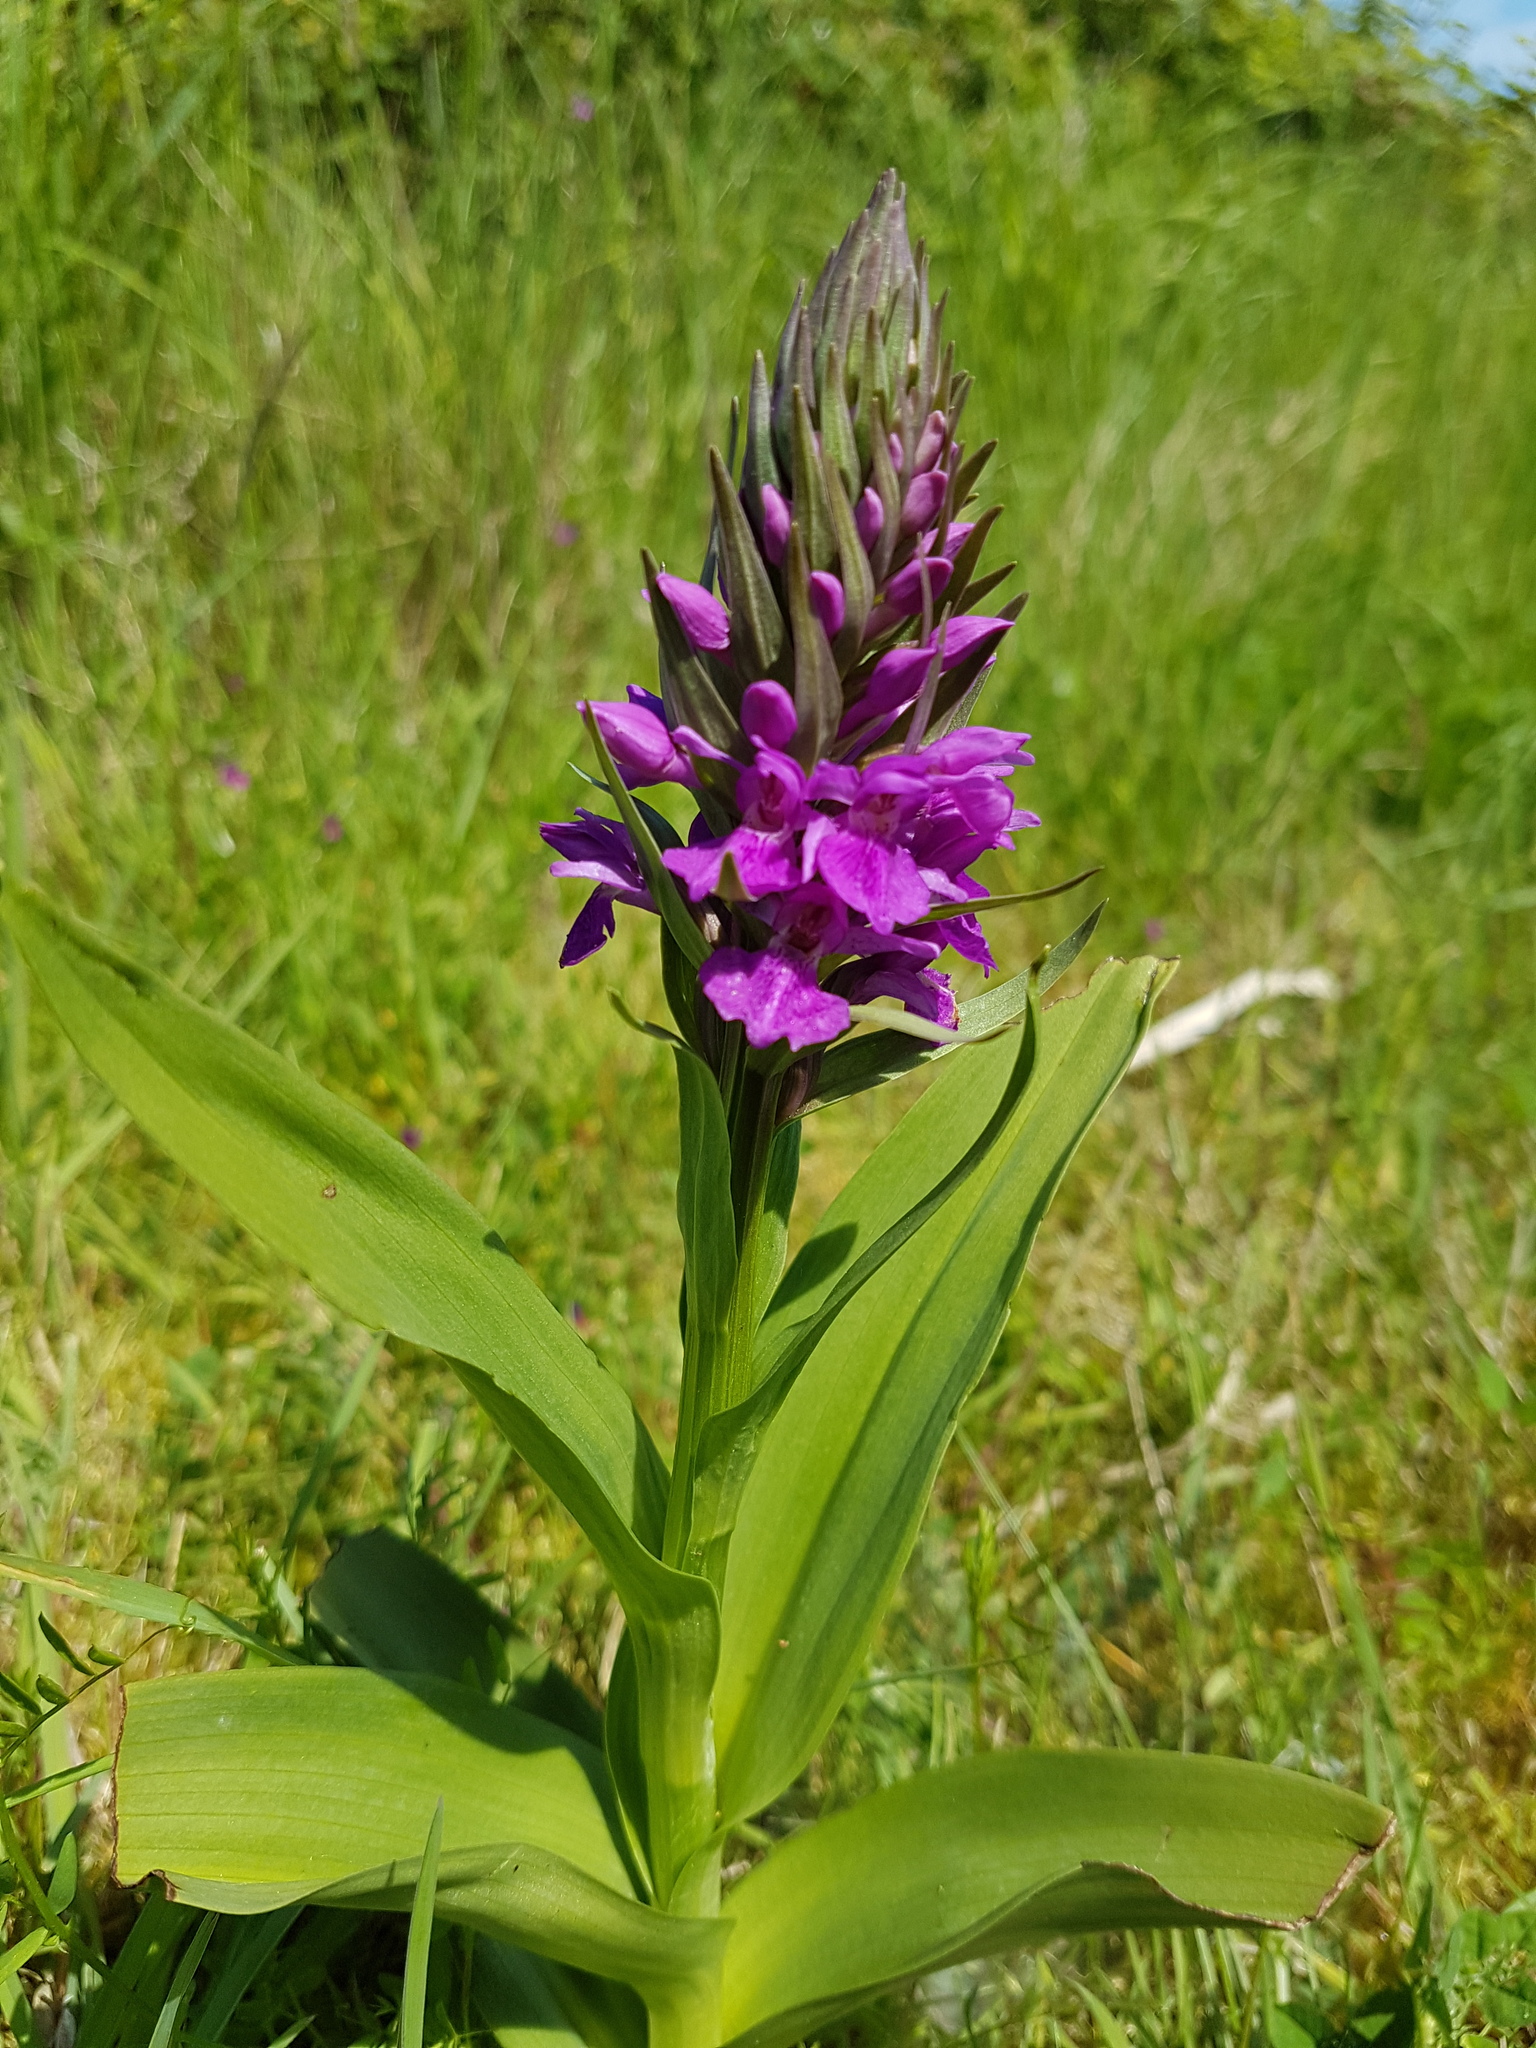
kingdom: Plantae
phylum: Tracheophyta
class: Liliopsida
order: Asparagales
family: Orchidaceae
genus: Dactylorhiza
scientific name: Dactylorhiza majalis
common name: Marsh orchid
